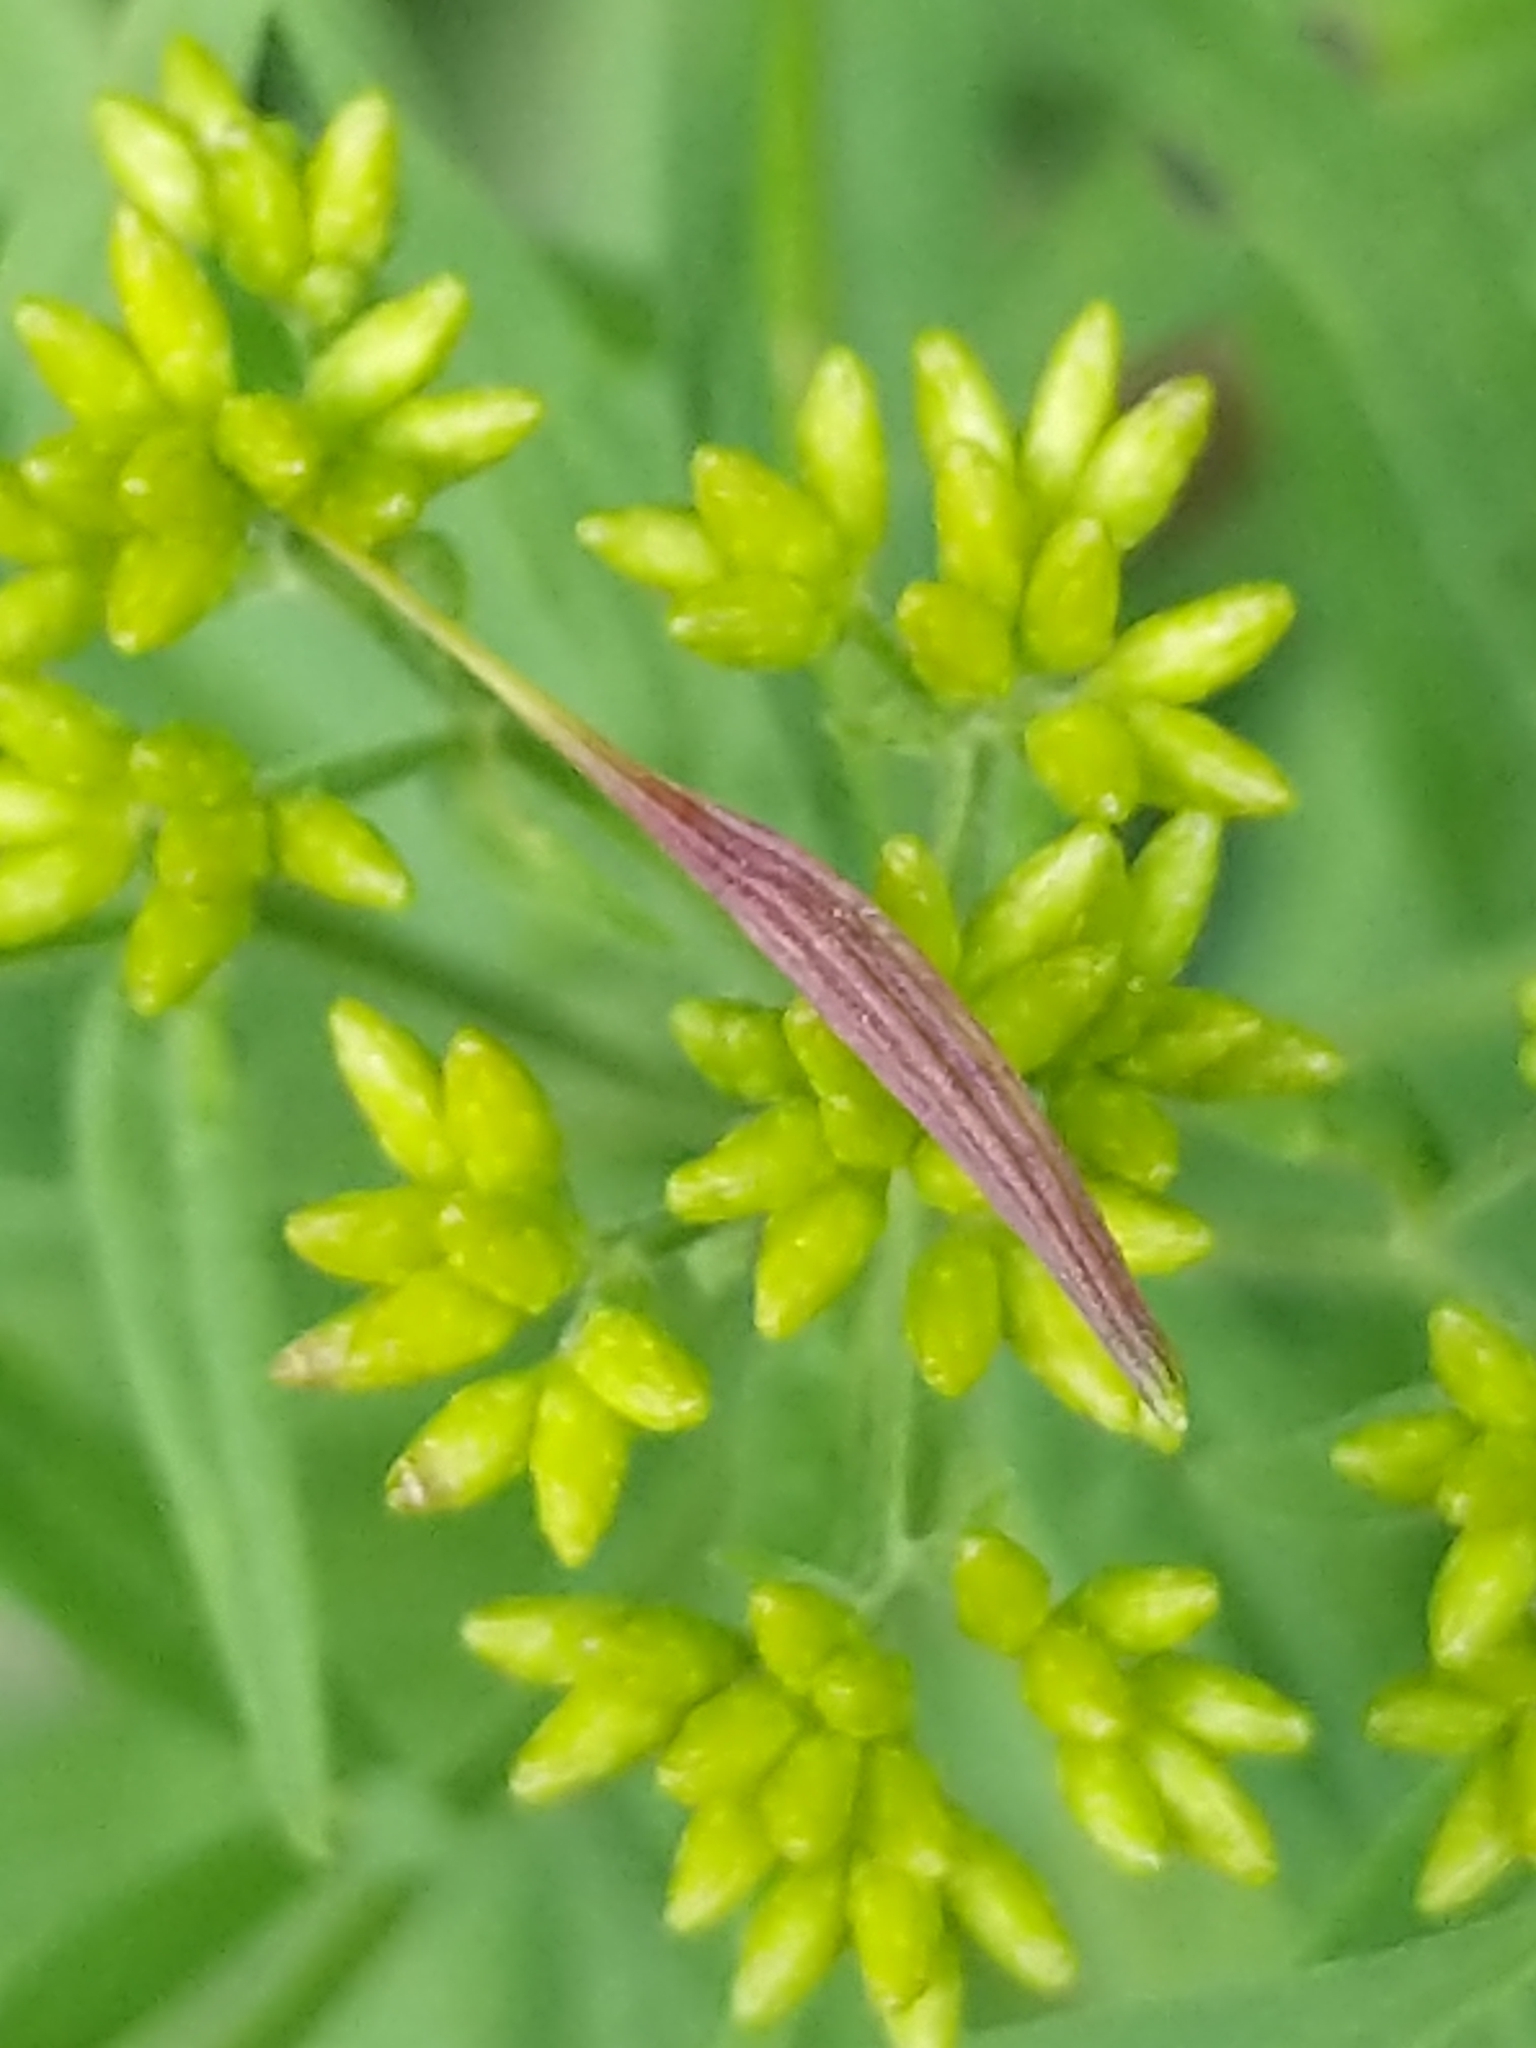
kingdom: Animalia
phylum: Arthropoda
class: Insecta
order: Diptera
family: Cecidomyiidae
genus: Rhopalomyia
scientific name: Rhopalomyia pedicellata
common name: Goldentop pedicellate gall midge
